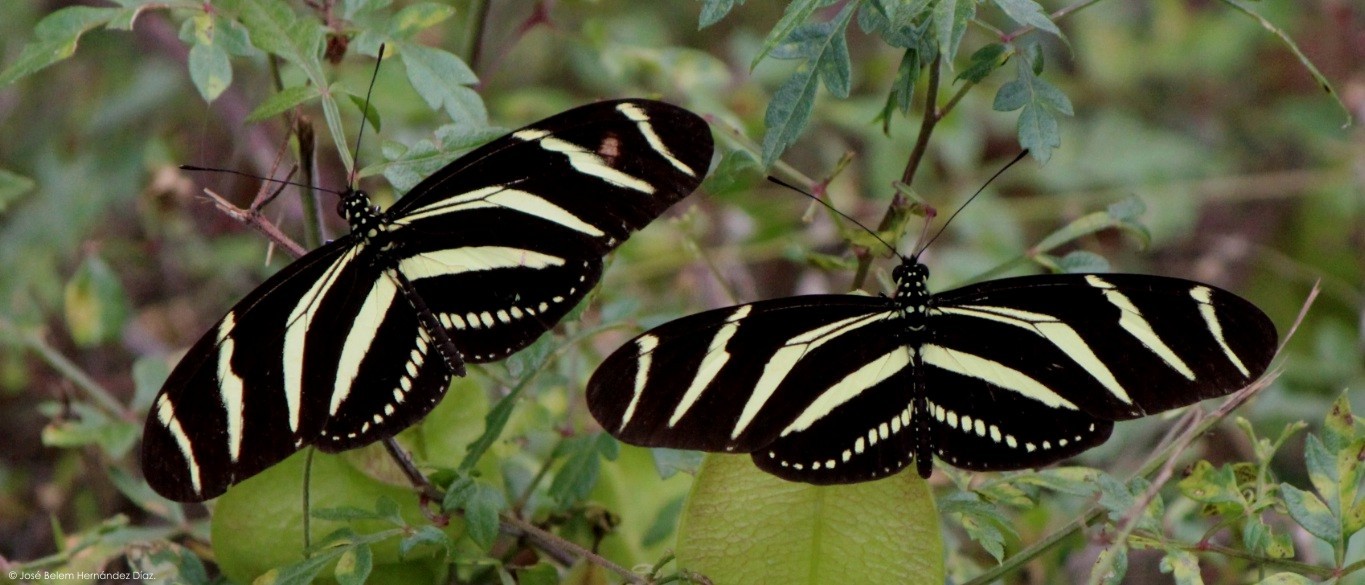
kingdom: Animalia
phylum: Arthropoda
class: Insecta
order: Lepidoptera
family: Nymphalidae
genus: Heliconius
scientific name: Heliconius charithonia
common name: Zebra long wing
